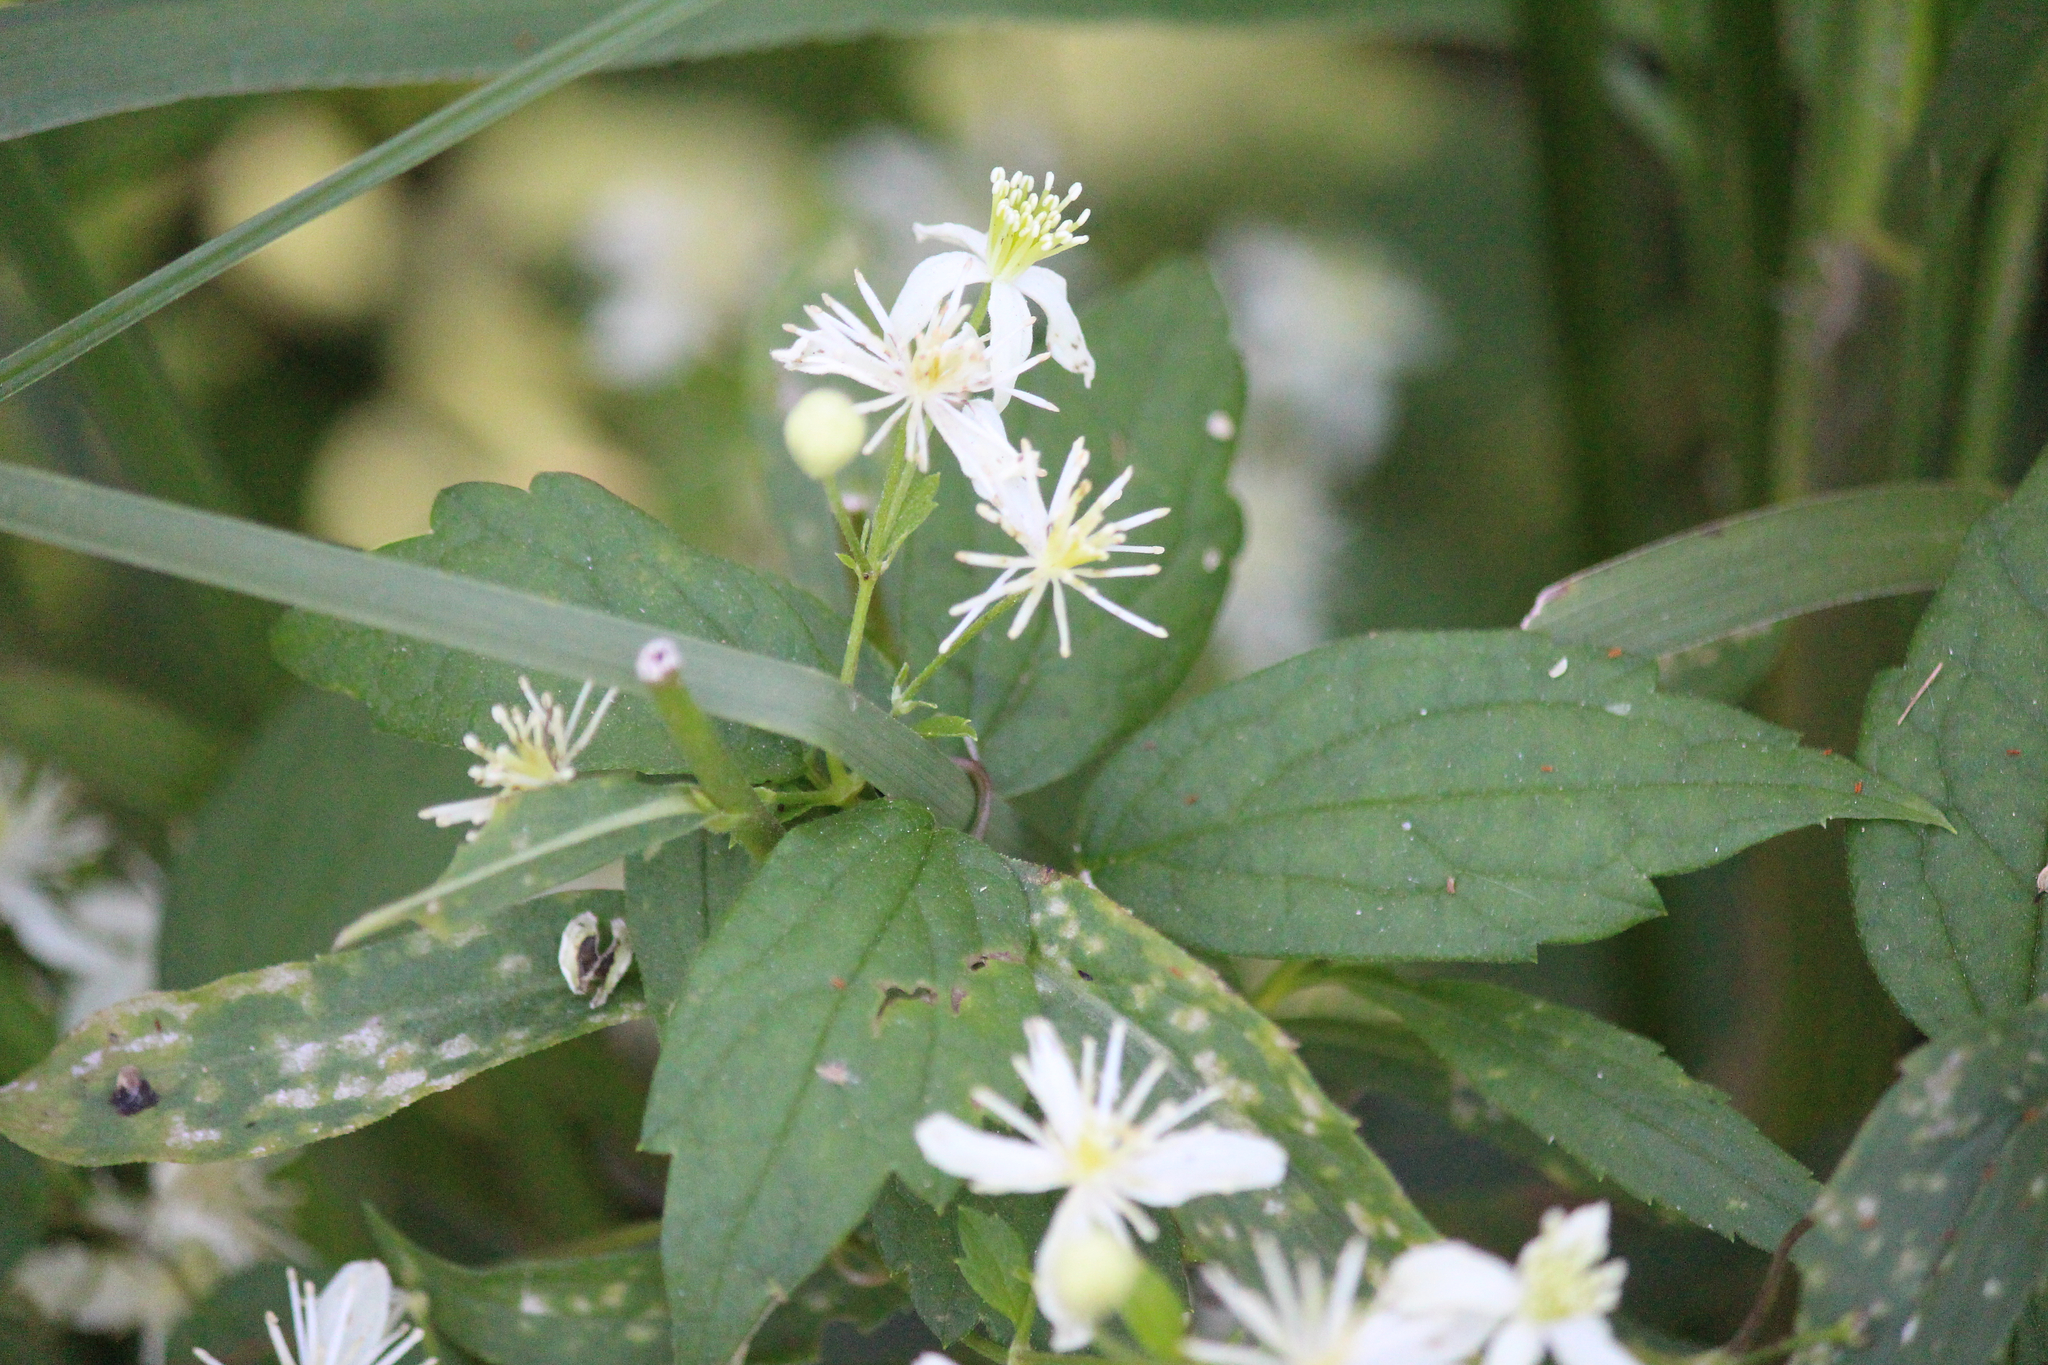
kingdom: Plantae
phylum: Tracheophyta
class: Magnoliopsida
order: Ranunculales
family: Ranunculaceae
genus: Clematis
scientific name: Clematis virginiana
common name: Virgin's-bower
